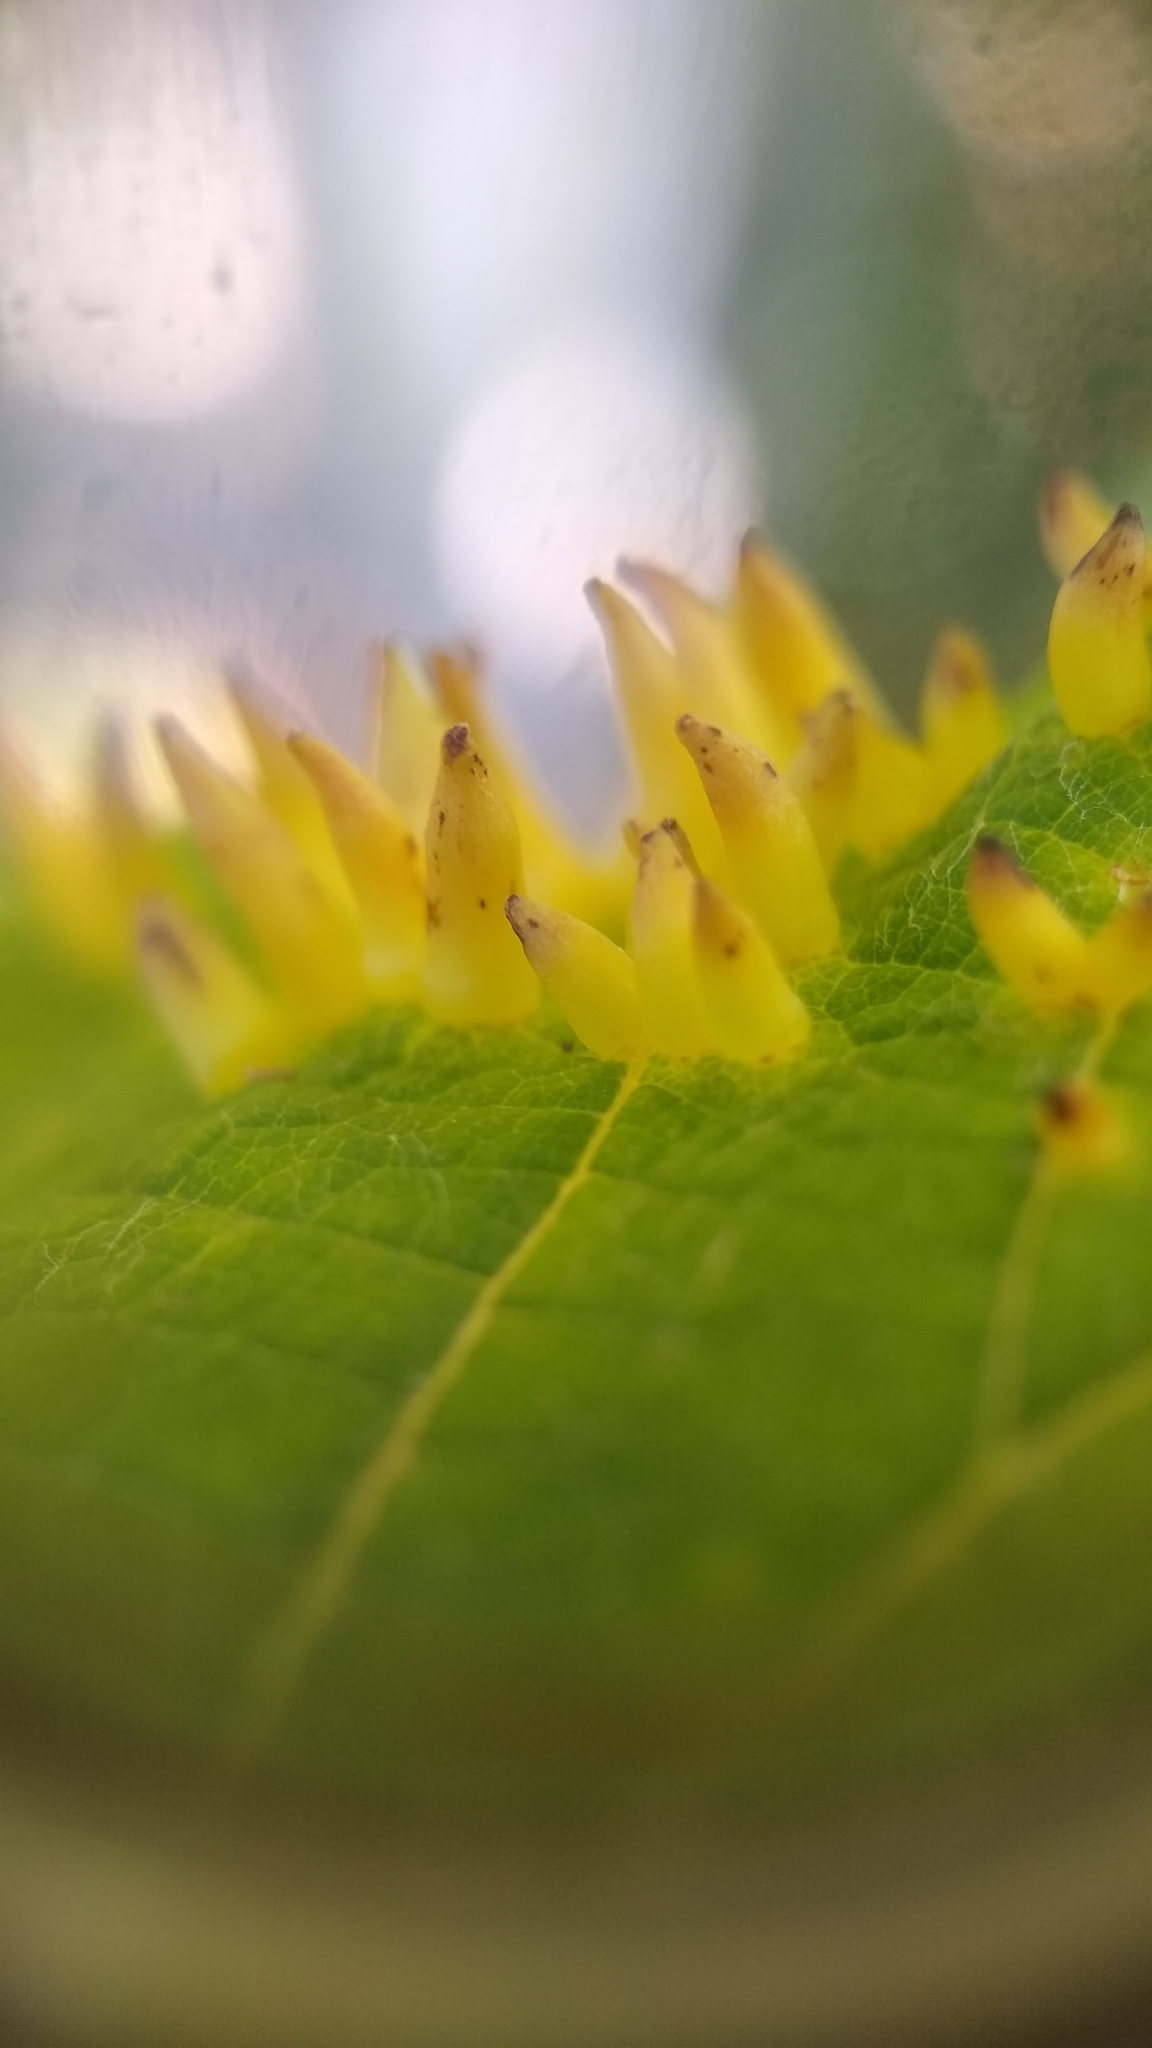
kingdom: Animalia
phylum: Arthropoda
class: Insecta
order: Diptera
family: Cecidomyiidae
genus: Ampelomyia
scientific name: Ampelomyia viticola
